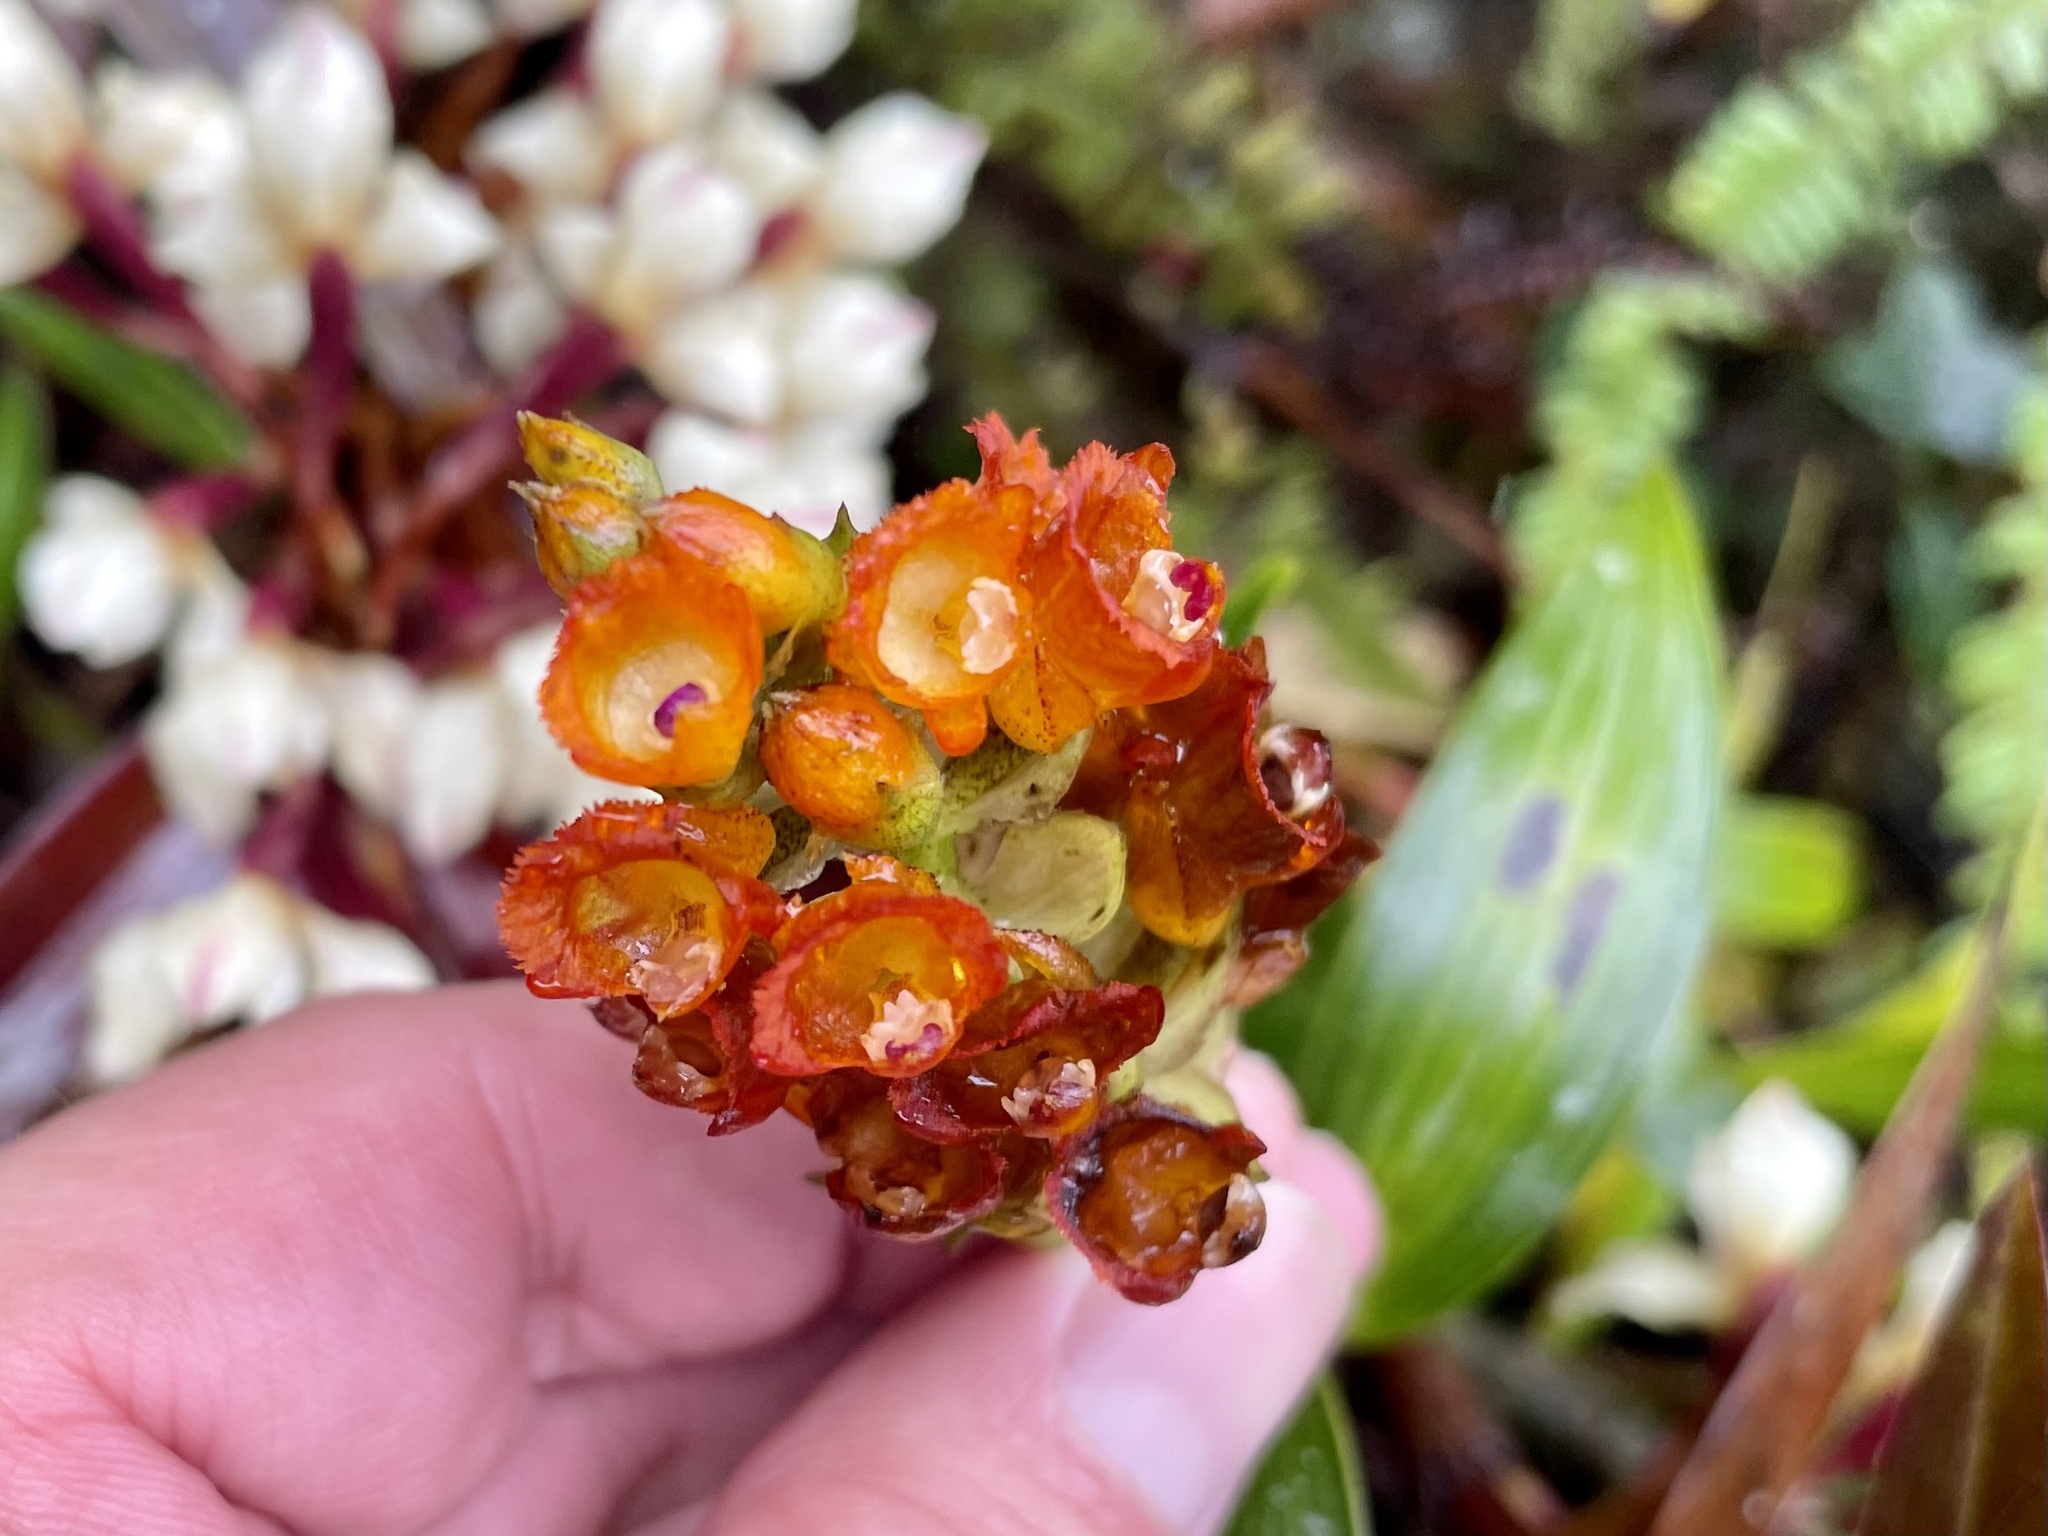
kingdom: Plantae
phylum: Tracheophyta
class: Liliopsida
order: Asparagales
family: Orchidaceae
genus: Elleanthus
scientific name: Elleanthus aurantiacus
